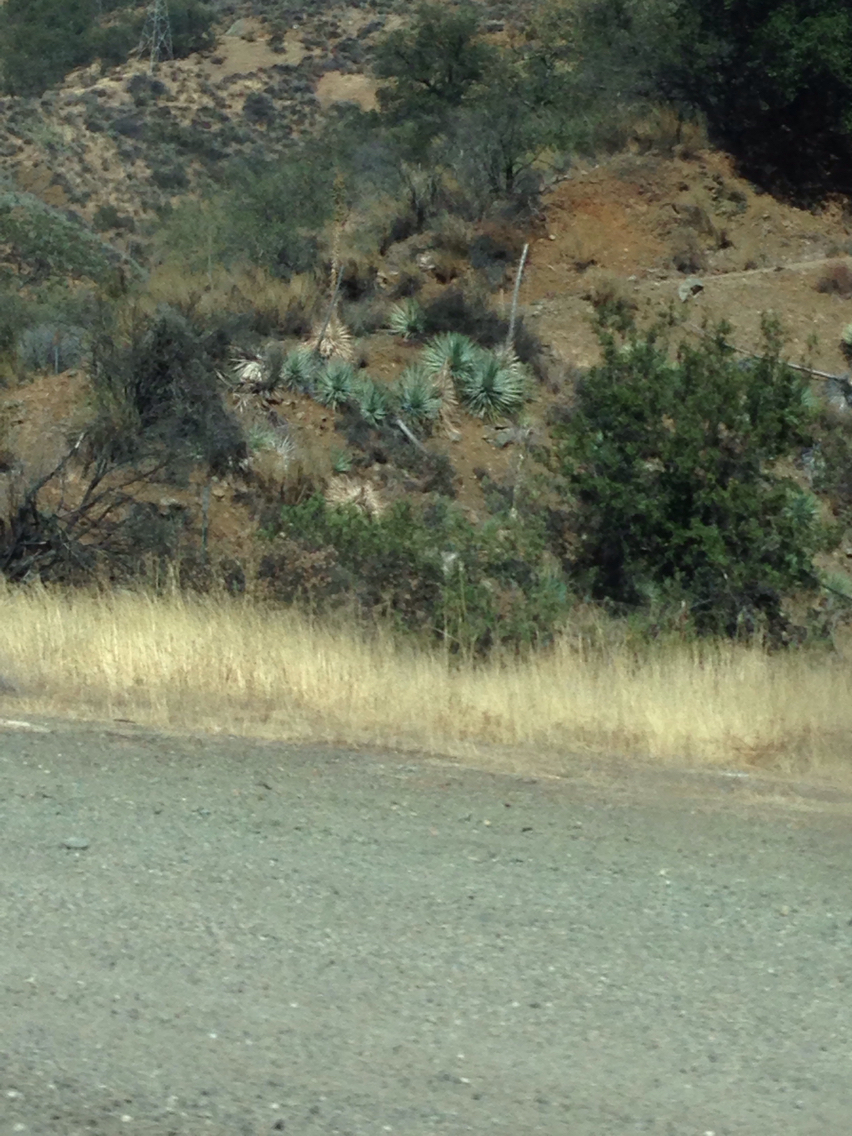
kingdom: Plantae
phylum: Tracheophyta
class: Liliopsida
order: Asparagales
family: Asparagaceae
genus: Hesperoyucca
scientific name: Hesperoyucca whipplei
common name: Our lord's-candle
